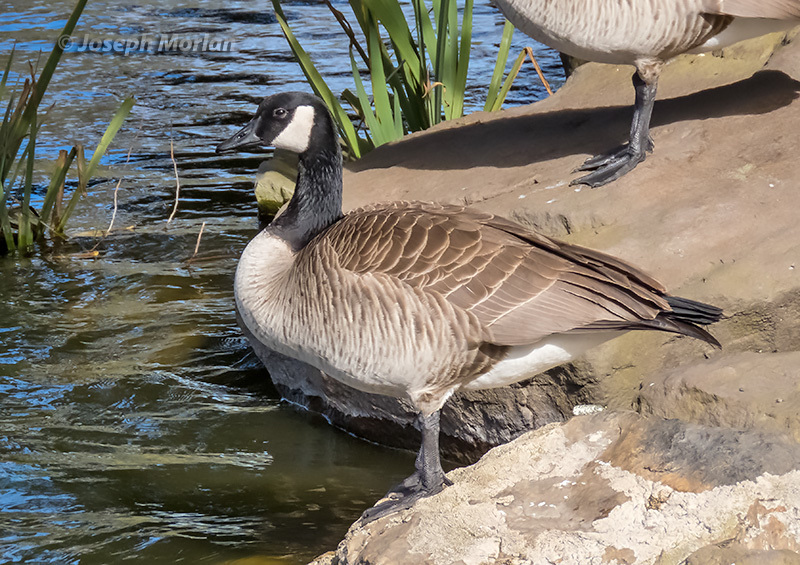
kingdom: Animalia
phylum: Chordata
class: Aves
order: Anseriformes
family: Anatidae
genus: Branta
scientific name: Branta canadensis
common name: Canada goose
